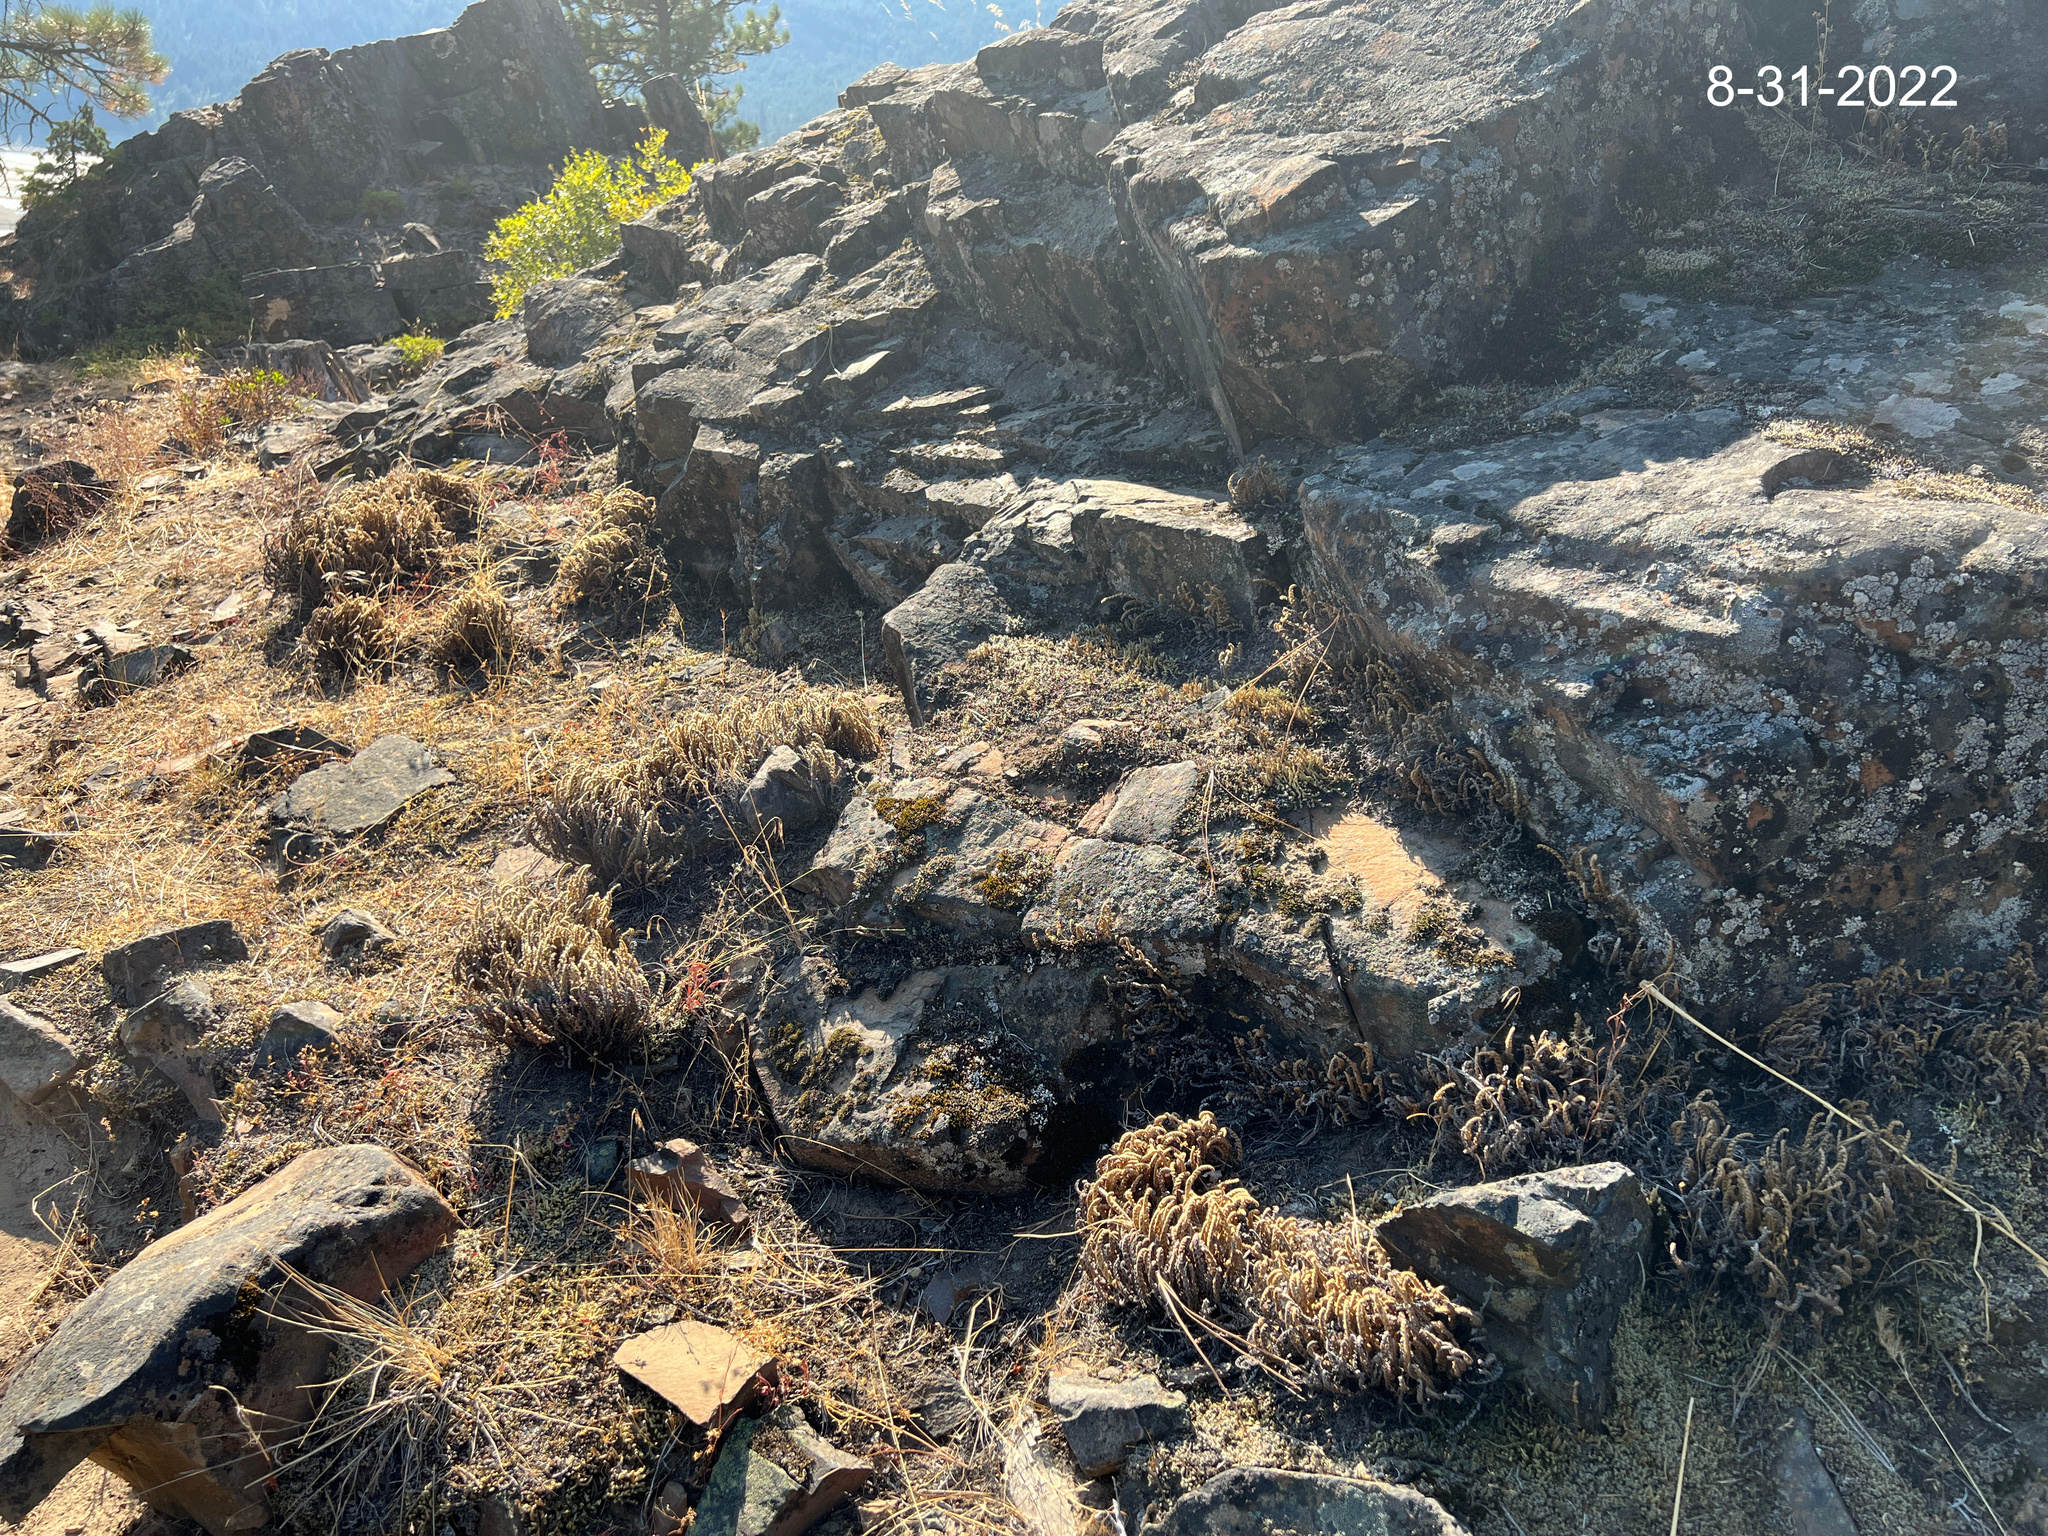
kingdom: Plantae
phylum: Tracheophyta
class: Polypodiopsida
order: Polypodiales
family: Pteridaceae
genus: Myriopteris
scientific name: Myriopteris gracillima
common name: Lace fern
